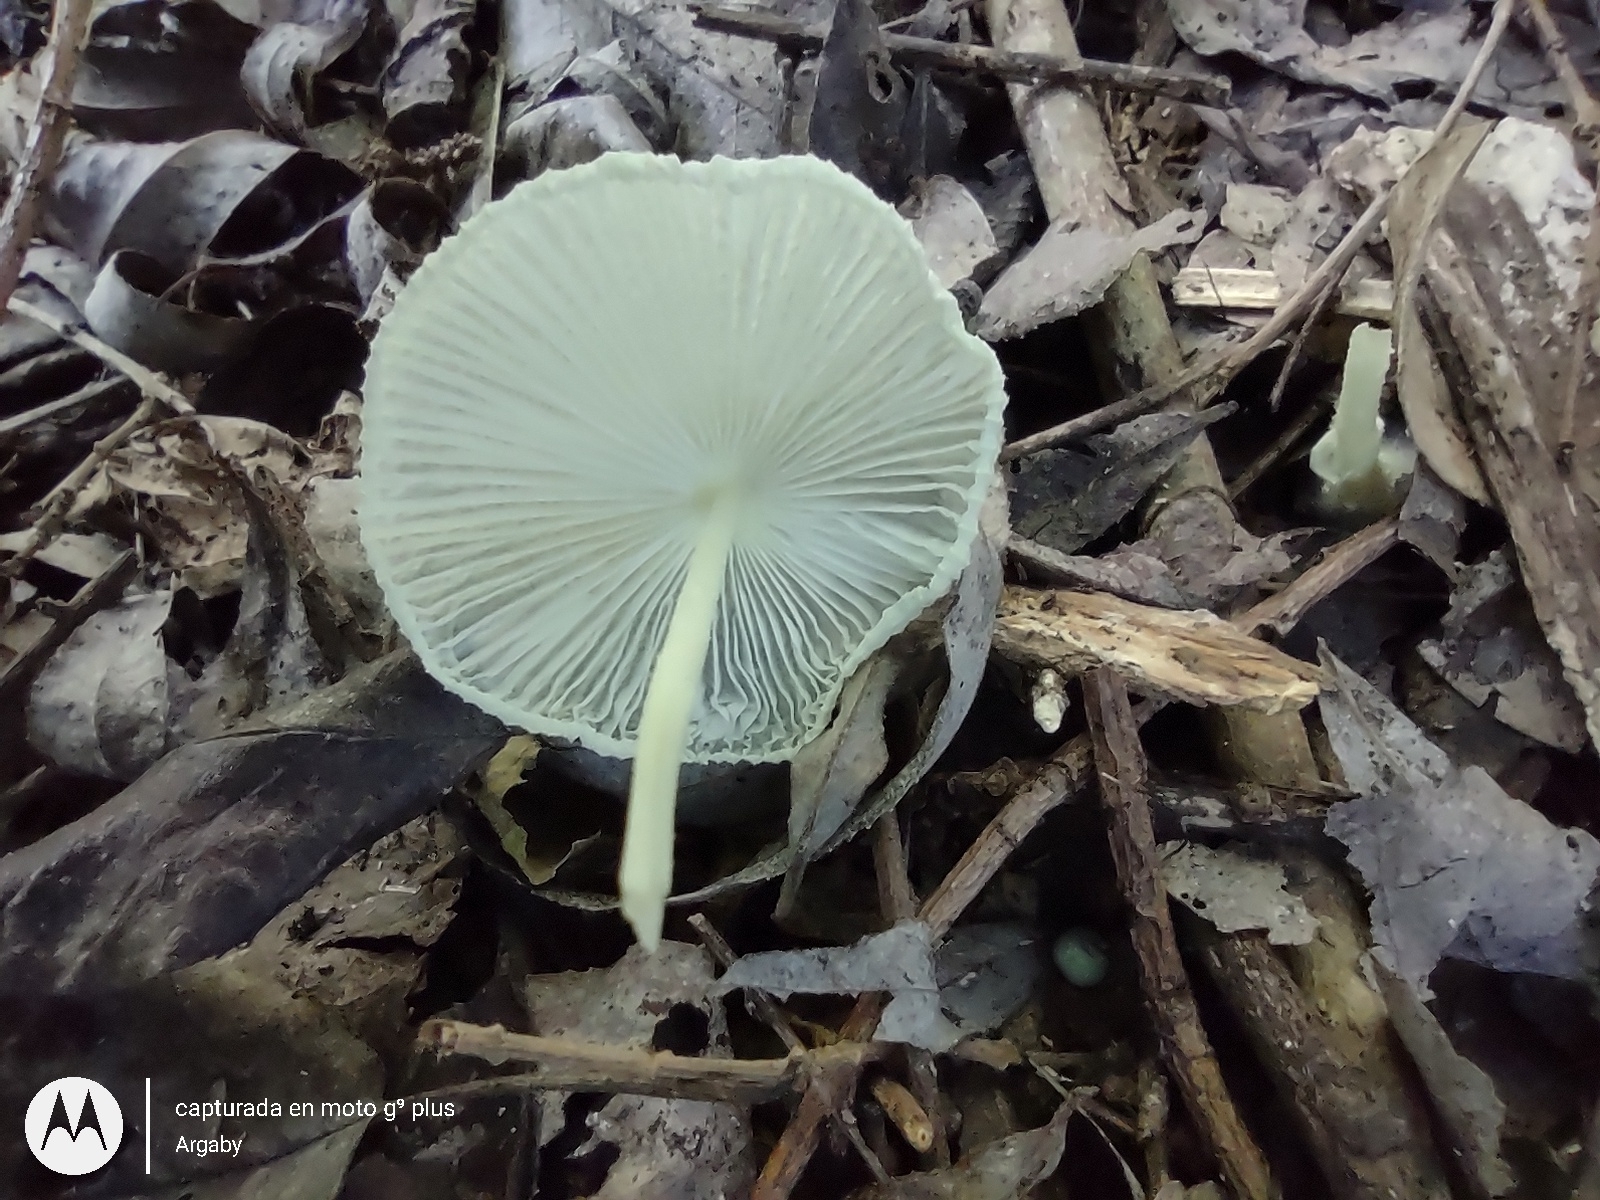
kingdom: Fungi
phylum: Basidiomycota
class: Agaricomycetes
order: Agaricales
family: Agaricaceae
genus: Leucocoprinus
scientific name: Leucocoprinus fragilissimus
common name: Fragile dapperling
